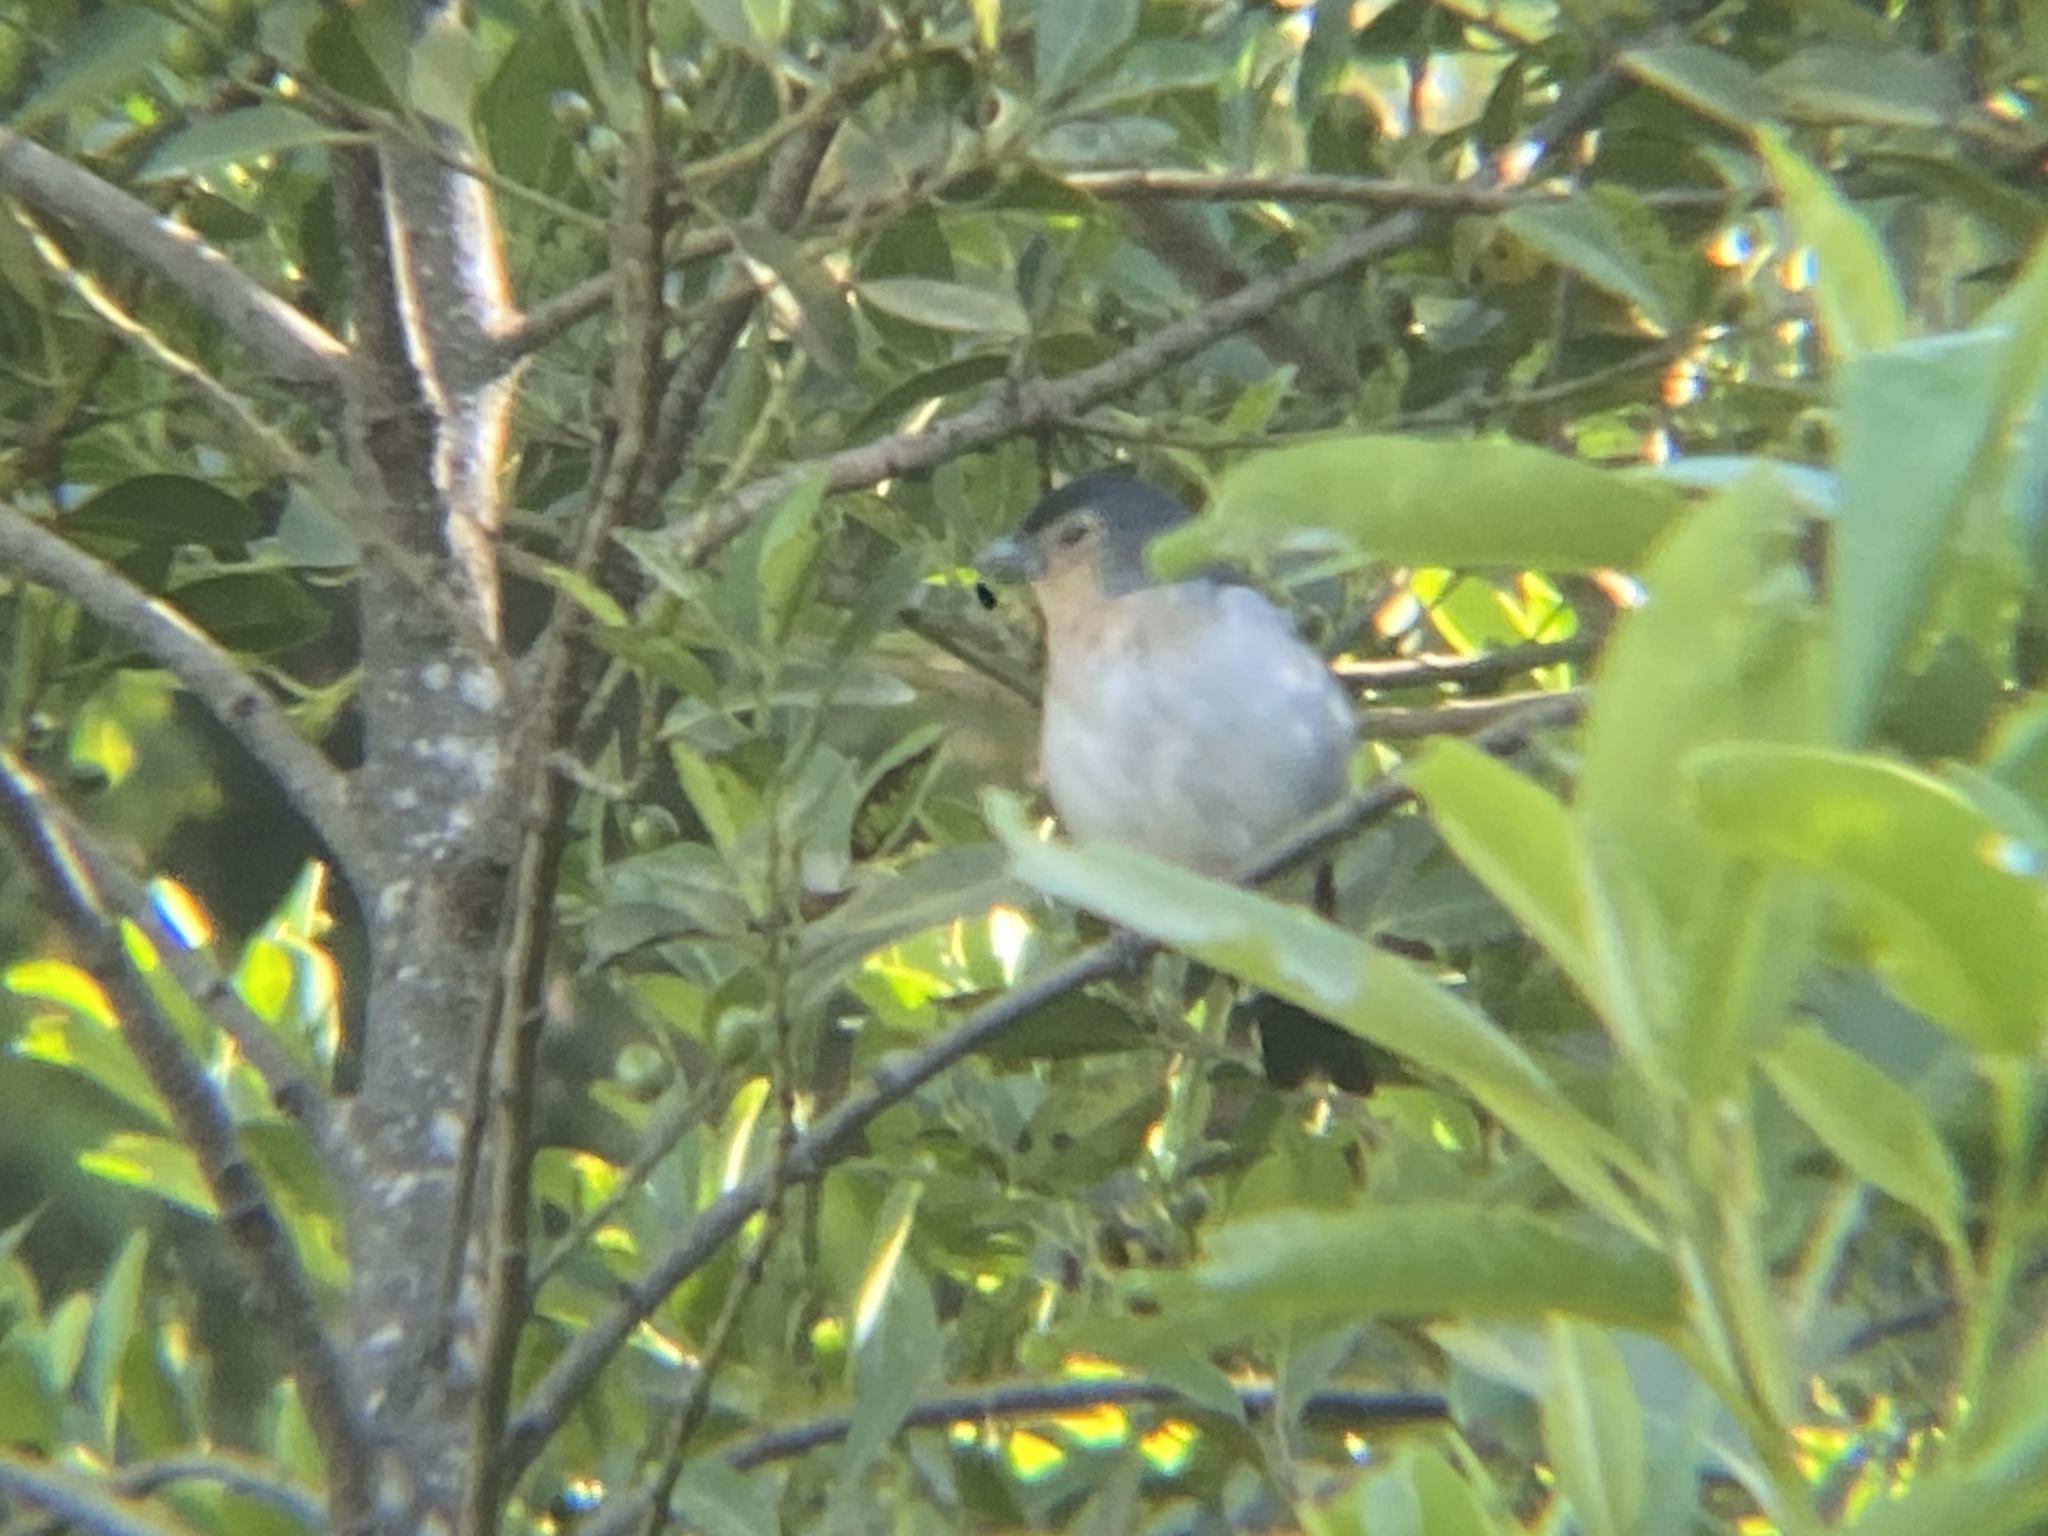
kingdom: Animalia
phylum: Chordata
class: Aves
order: Passeriformes
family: Fringillidae
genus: Fringilla
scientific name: Fringilla canariensis
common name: Canary islands chaffinch
